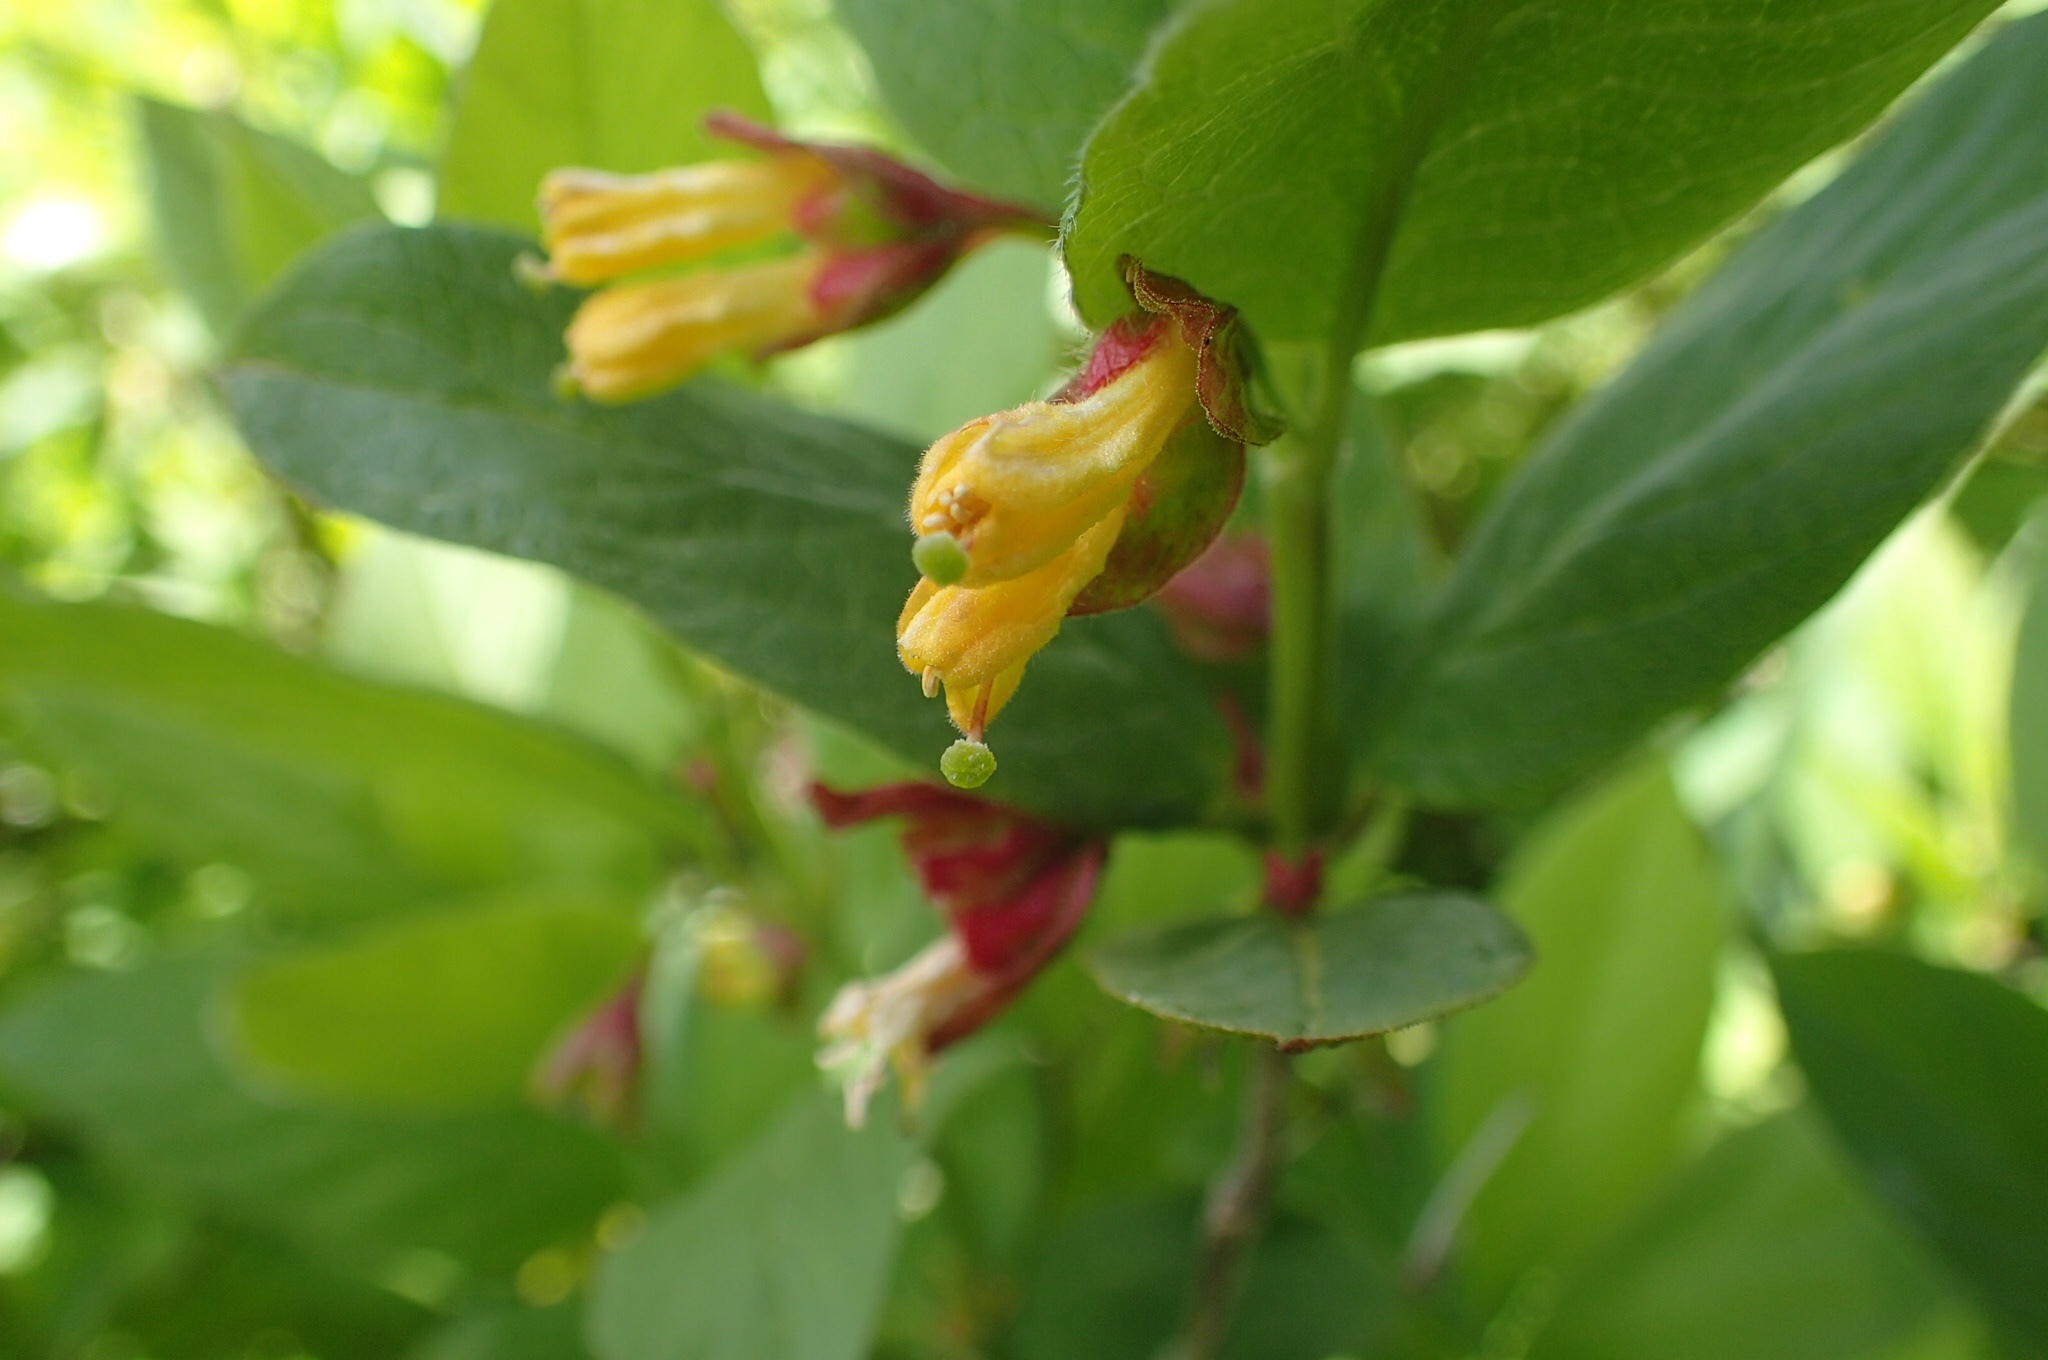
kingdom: Plantae
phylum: Tracheophyta
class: Magnoliopsida
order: Dipsacales
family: Caprifoliaceae
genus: Lonicera
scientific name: Lonicera involucrata
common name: Californian honeysuckle
